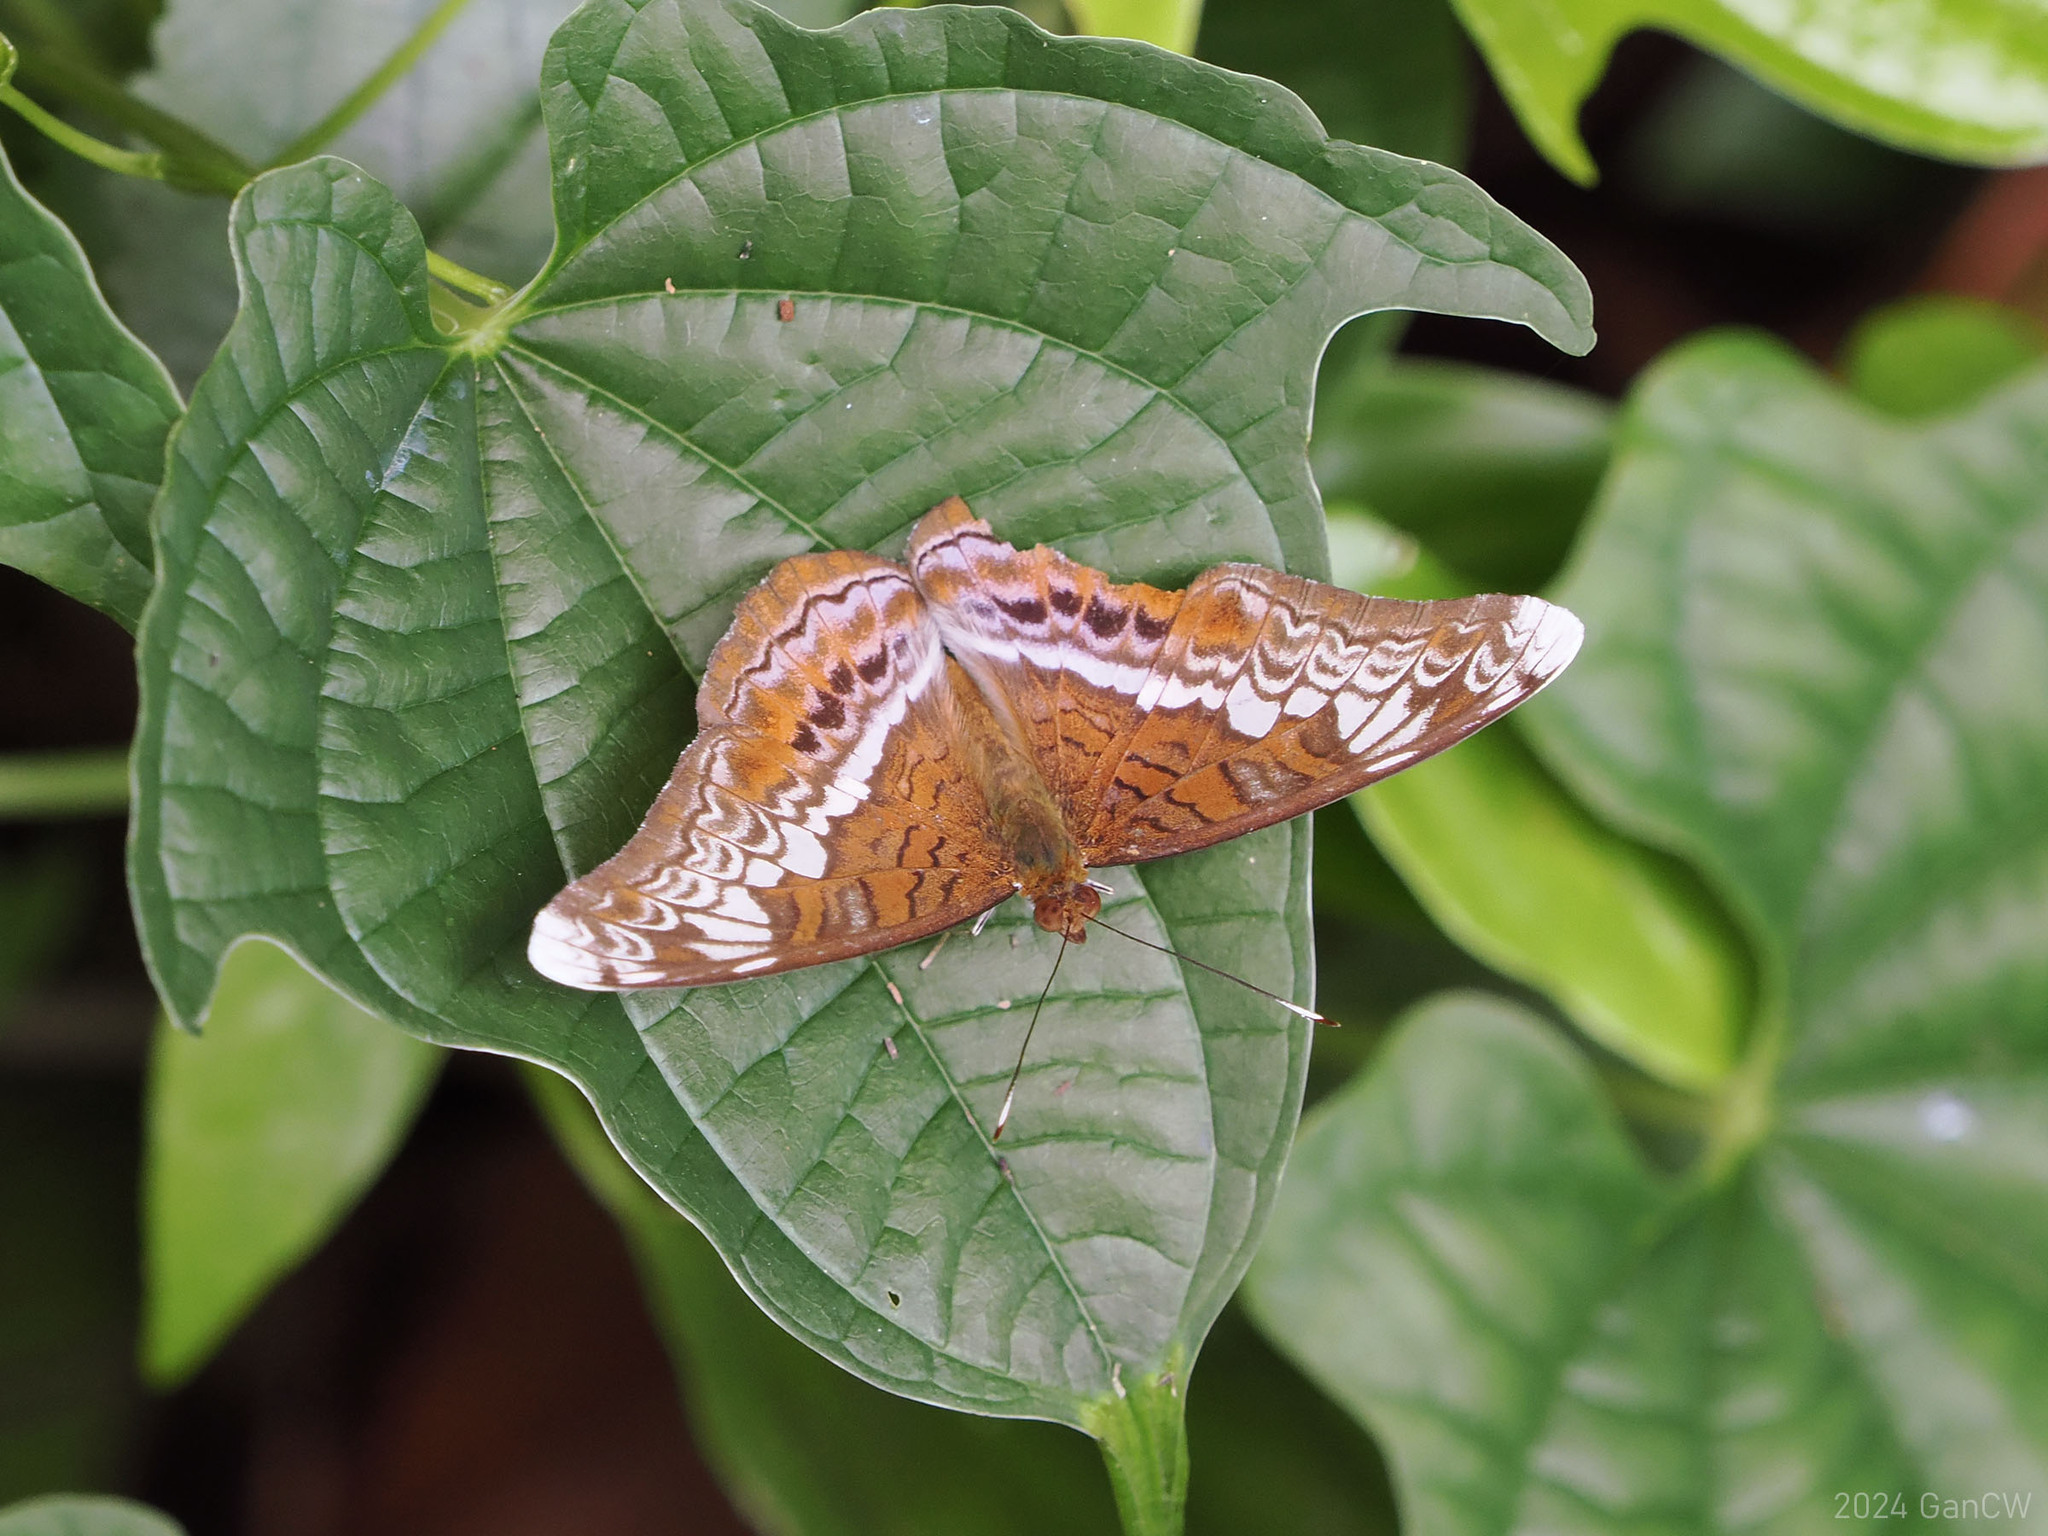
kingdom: Animalia
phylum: Arthropoda
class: Insecta
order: Lepidoptera
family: Nymphalidae
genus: Lebadea
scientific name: Lebadea martha
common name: Knight
